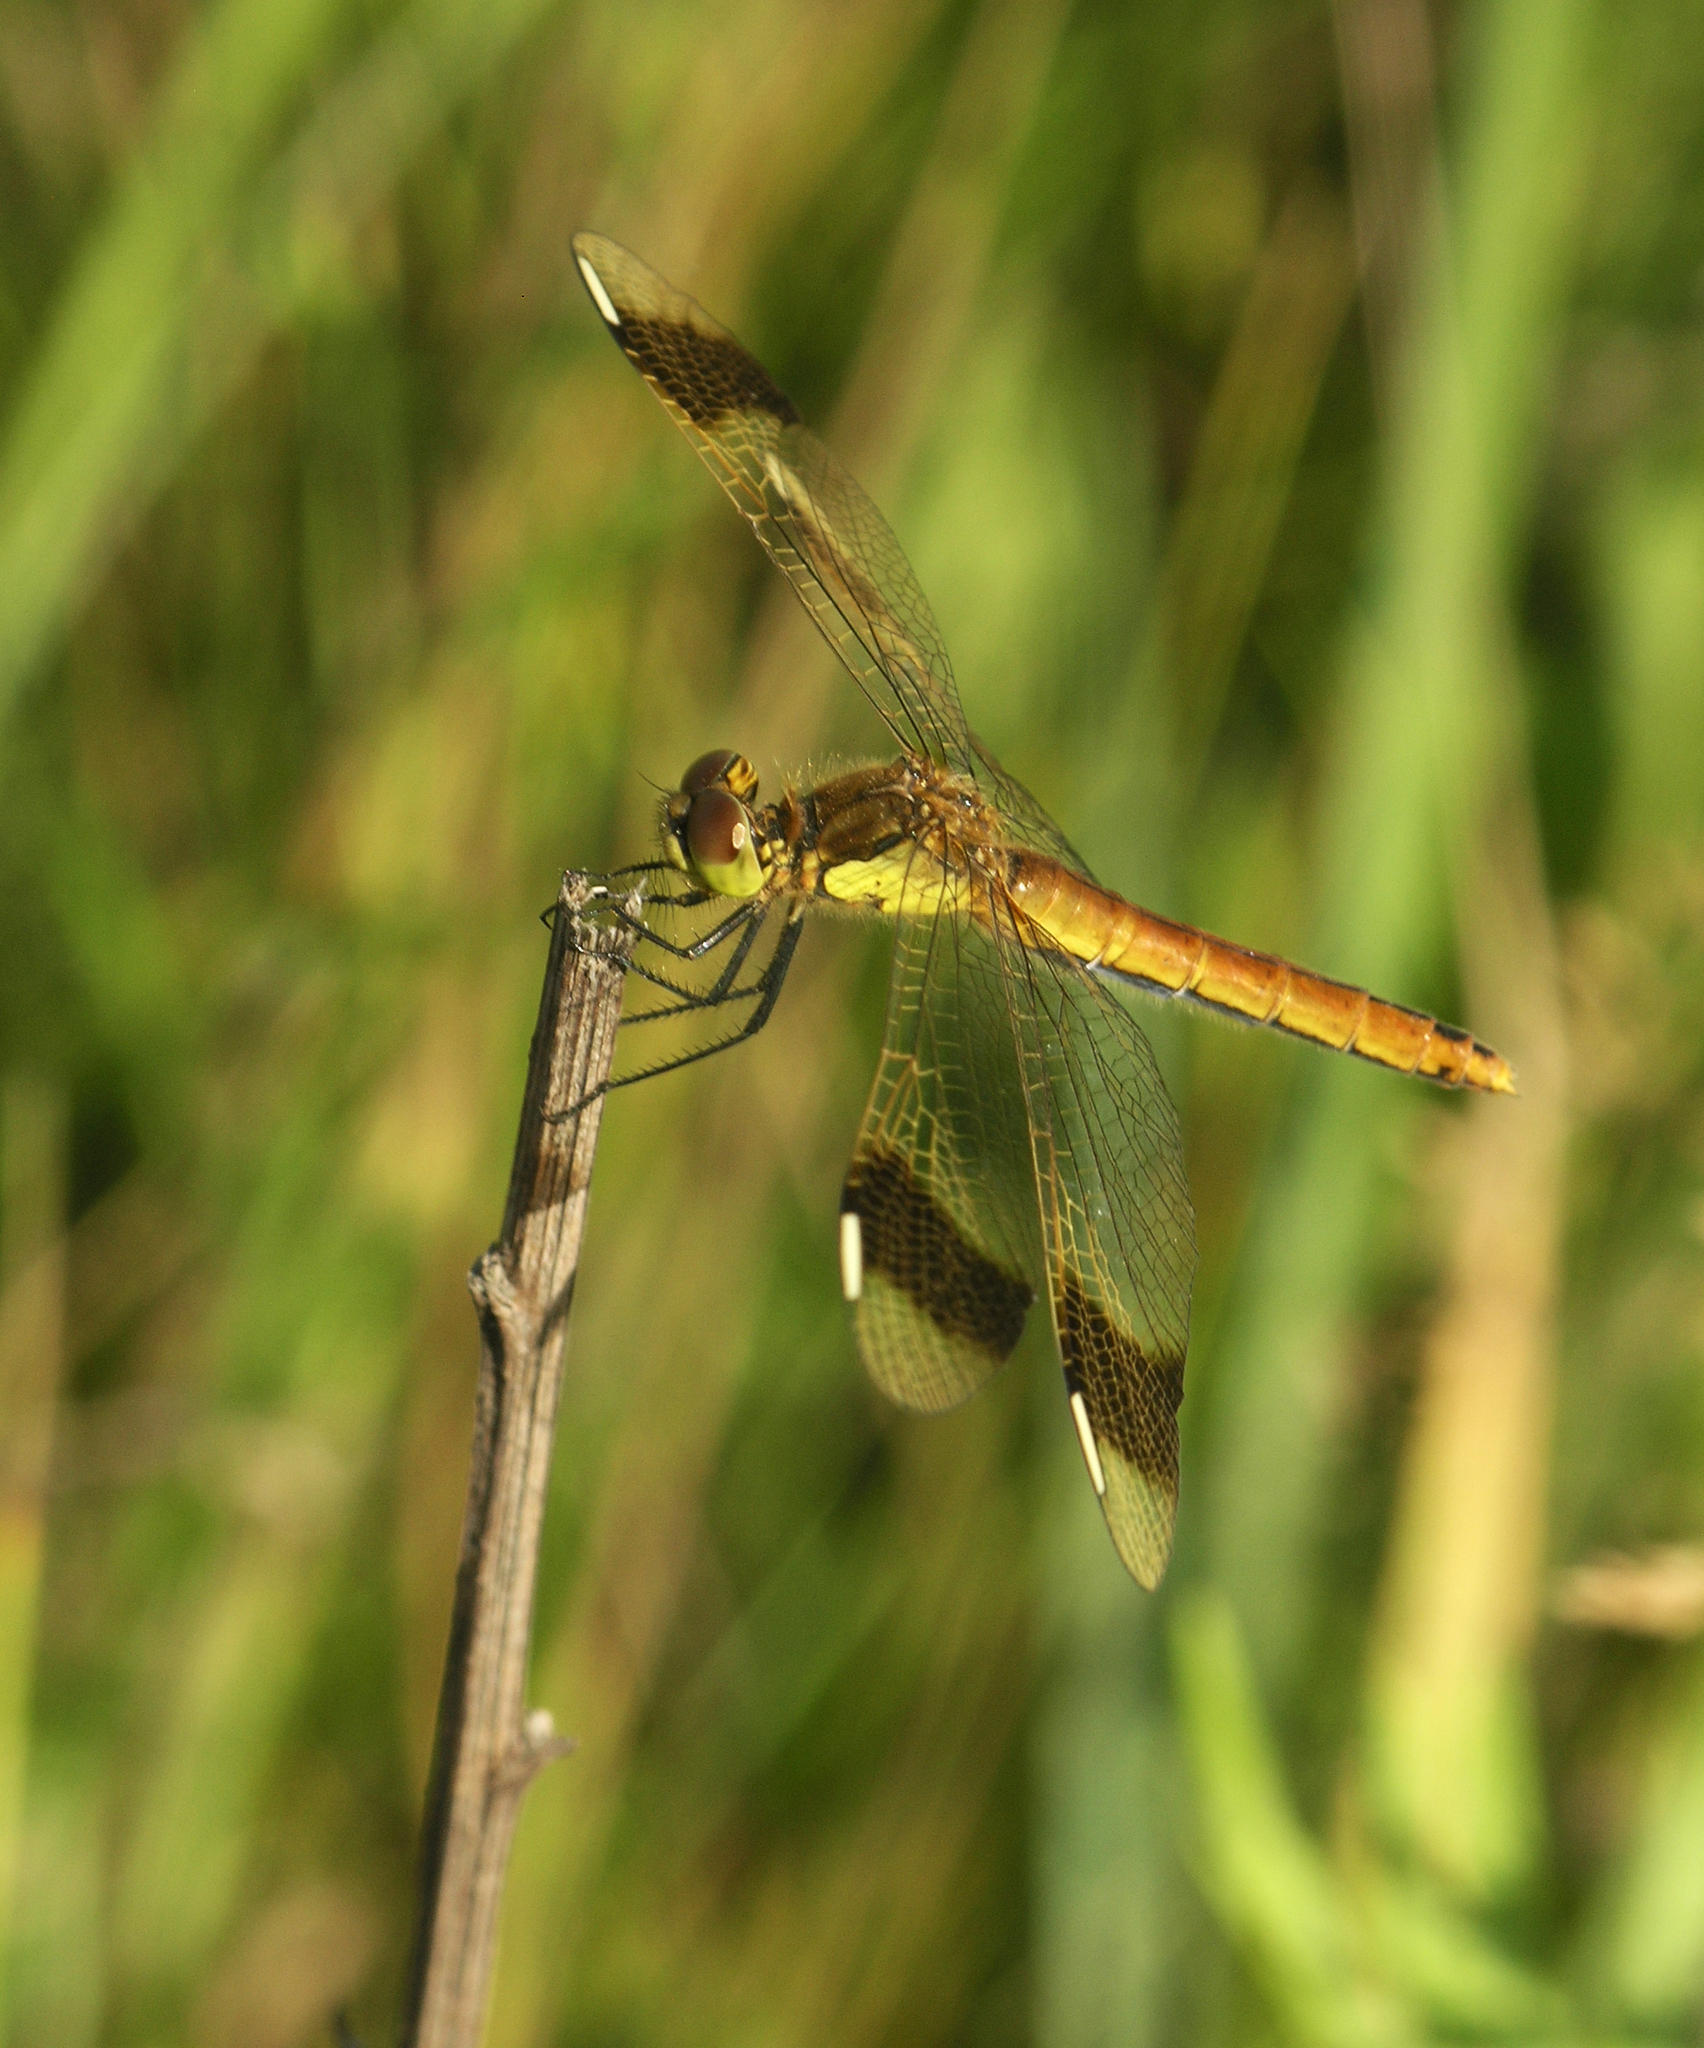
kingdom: Animalia
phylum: Arthropoda
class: Insecta
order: Odonata
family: Libellulidae
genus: Sympetrum
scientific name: Sympetrum pedemontanum
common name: Banded darter
